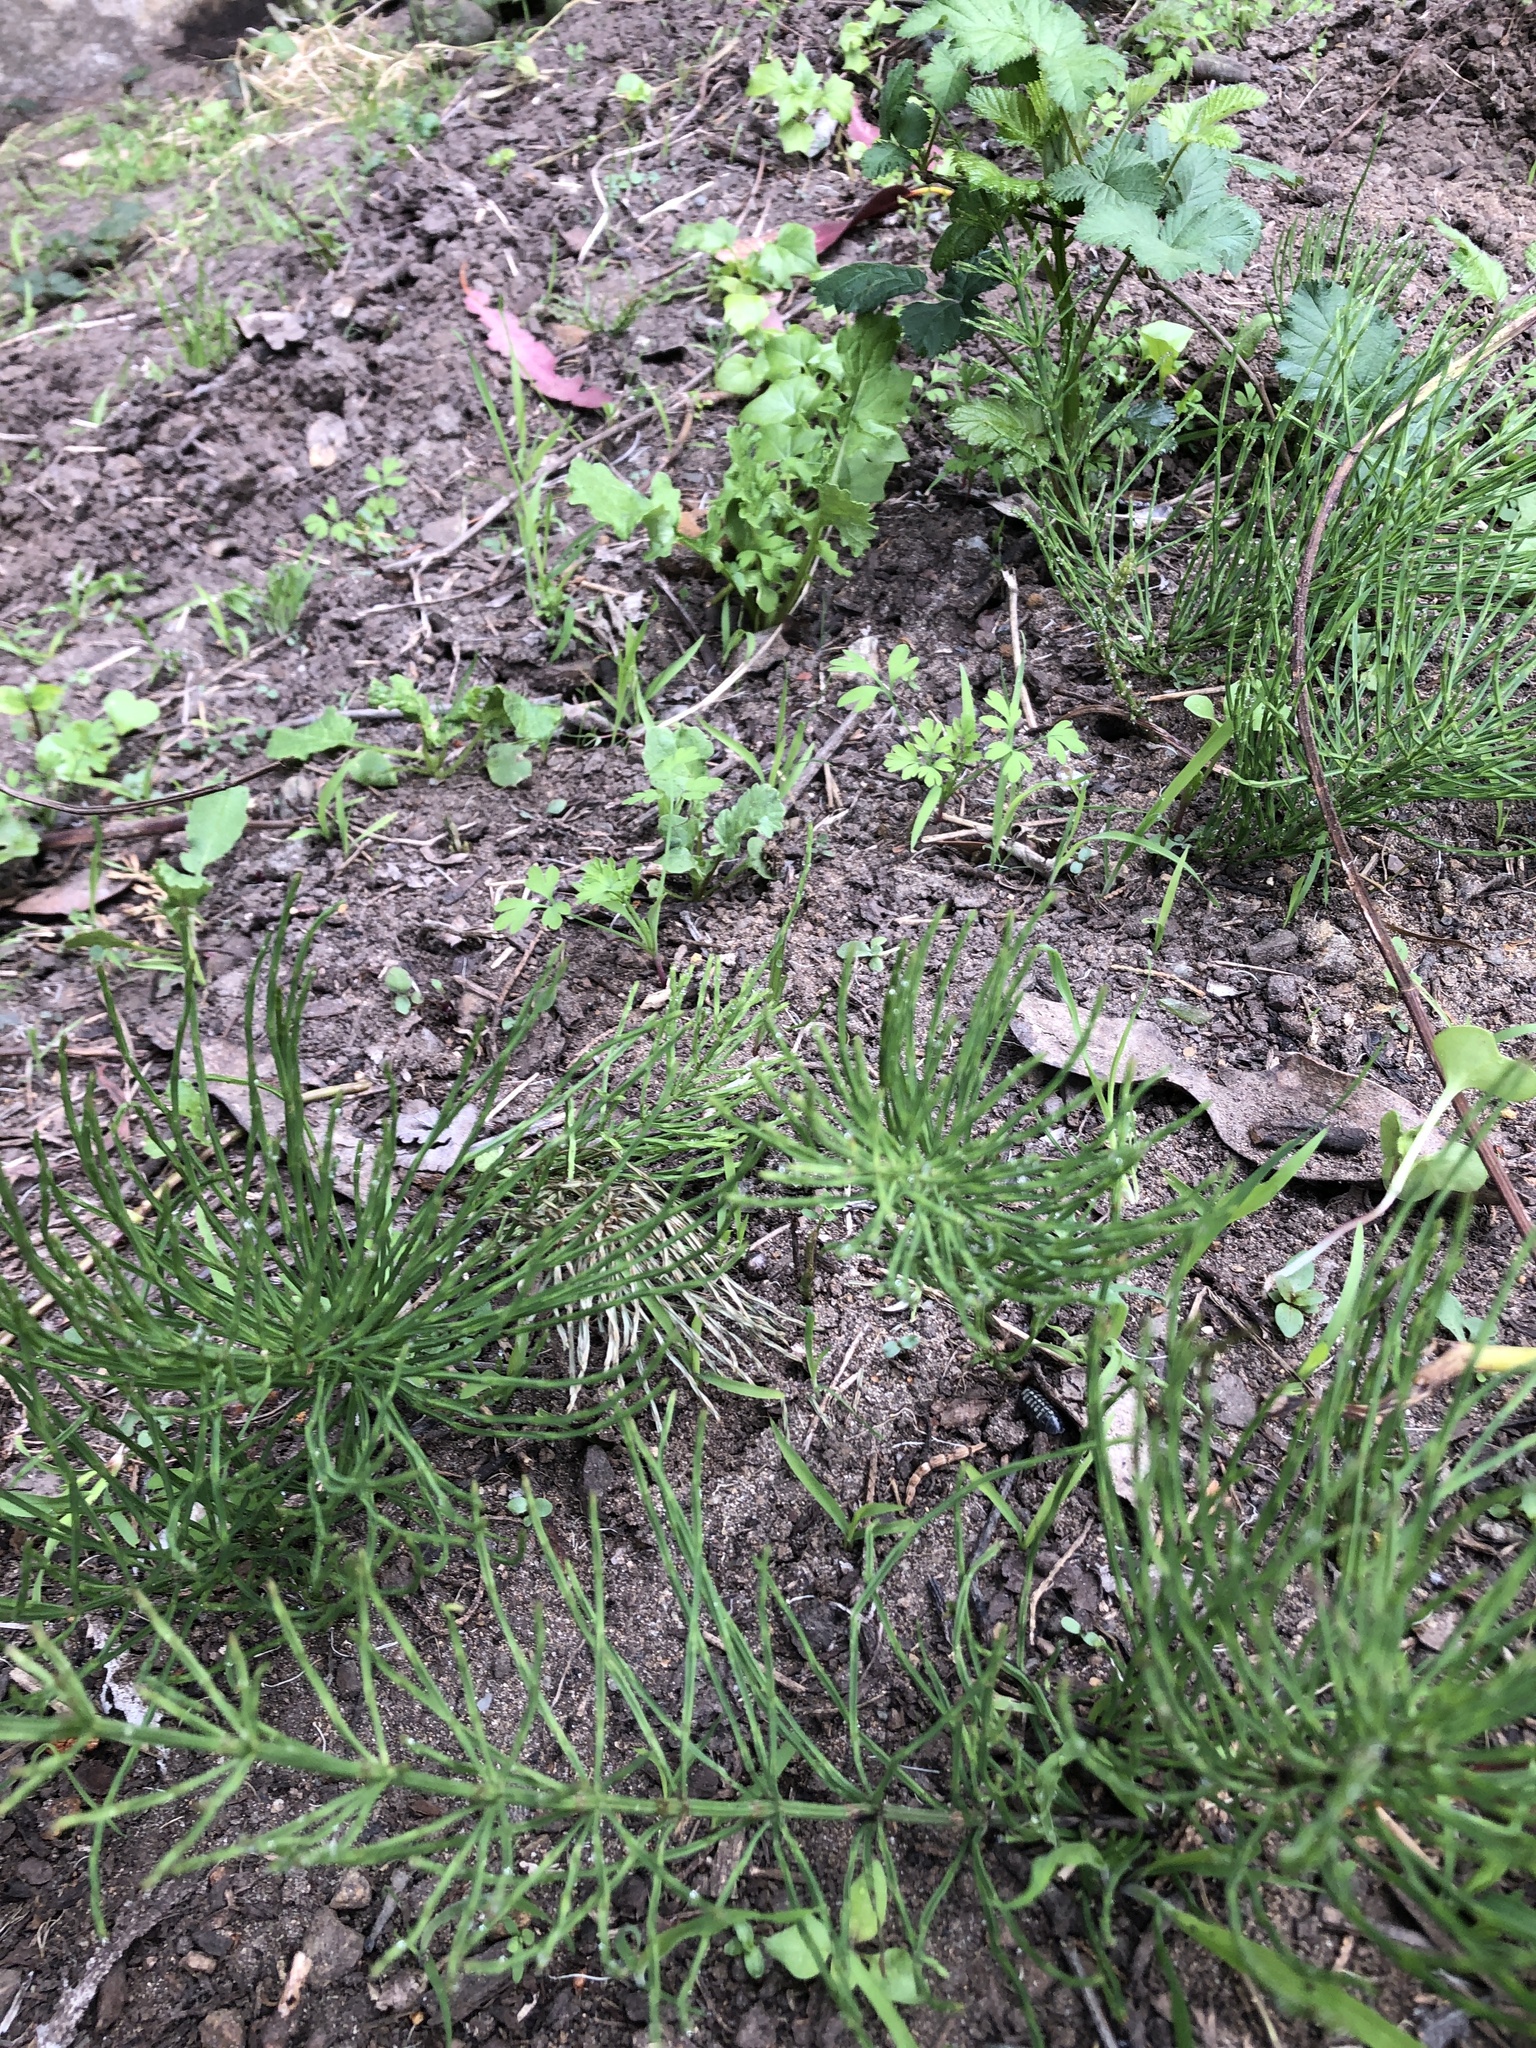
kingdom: Plantae
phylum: Tracheophyta
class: Polypodiopsida
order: Equisetales
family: Equisetaceae
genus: Equisetum
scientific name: Equisetum arvense
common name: Field horsetail
